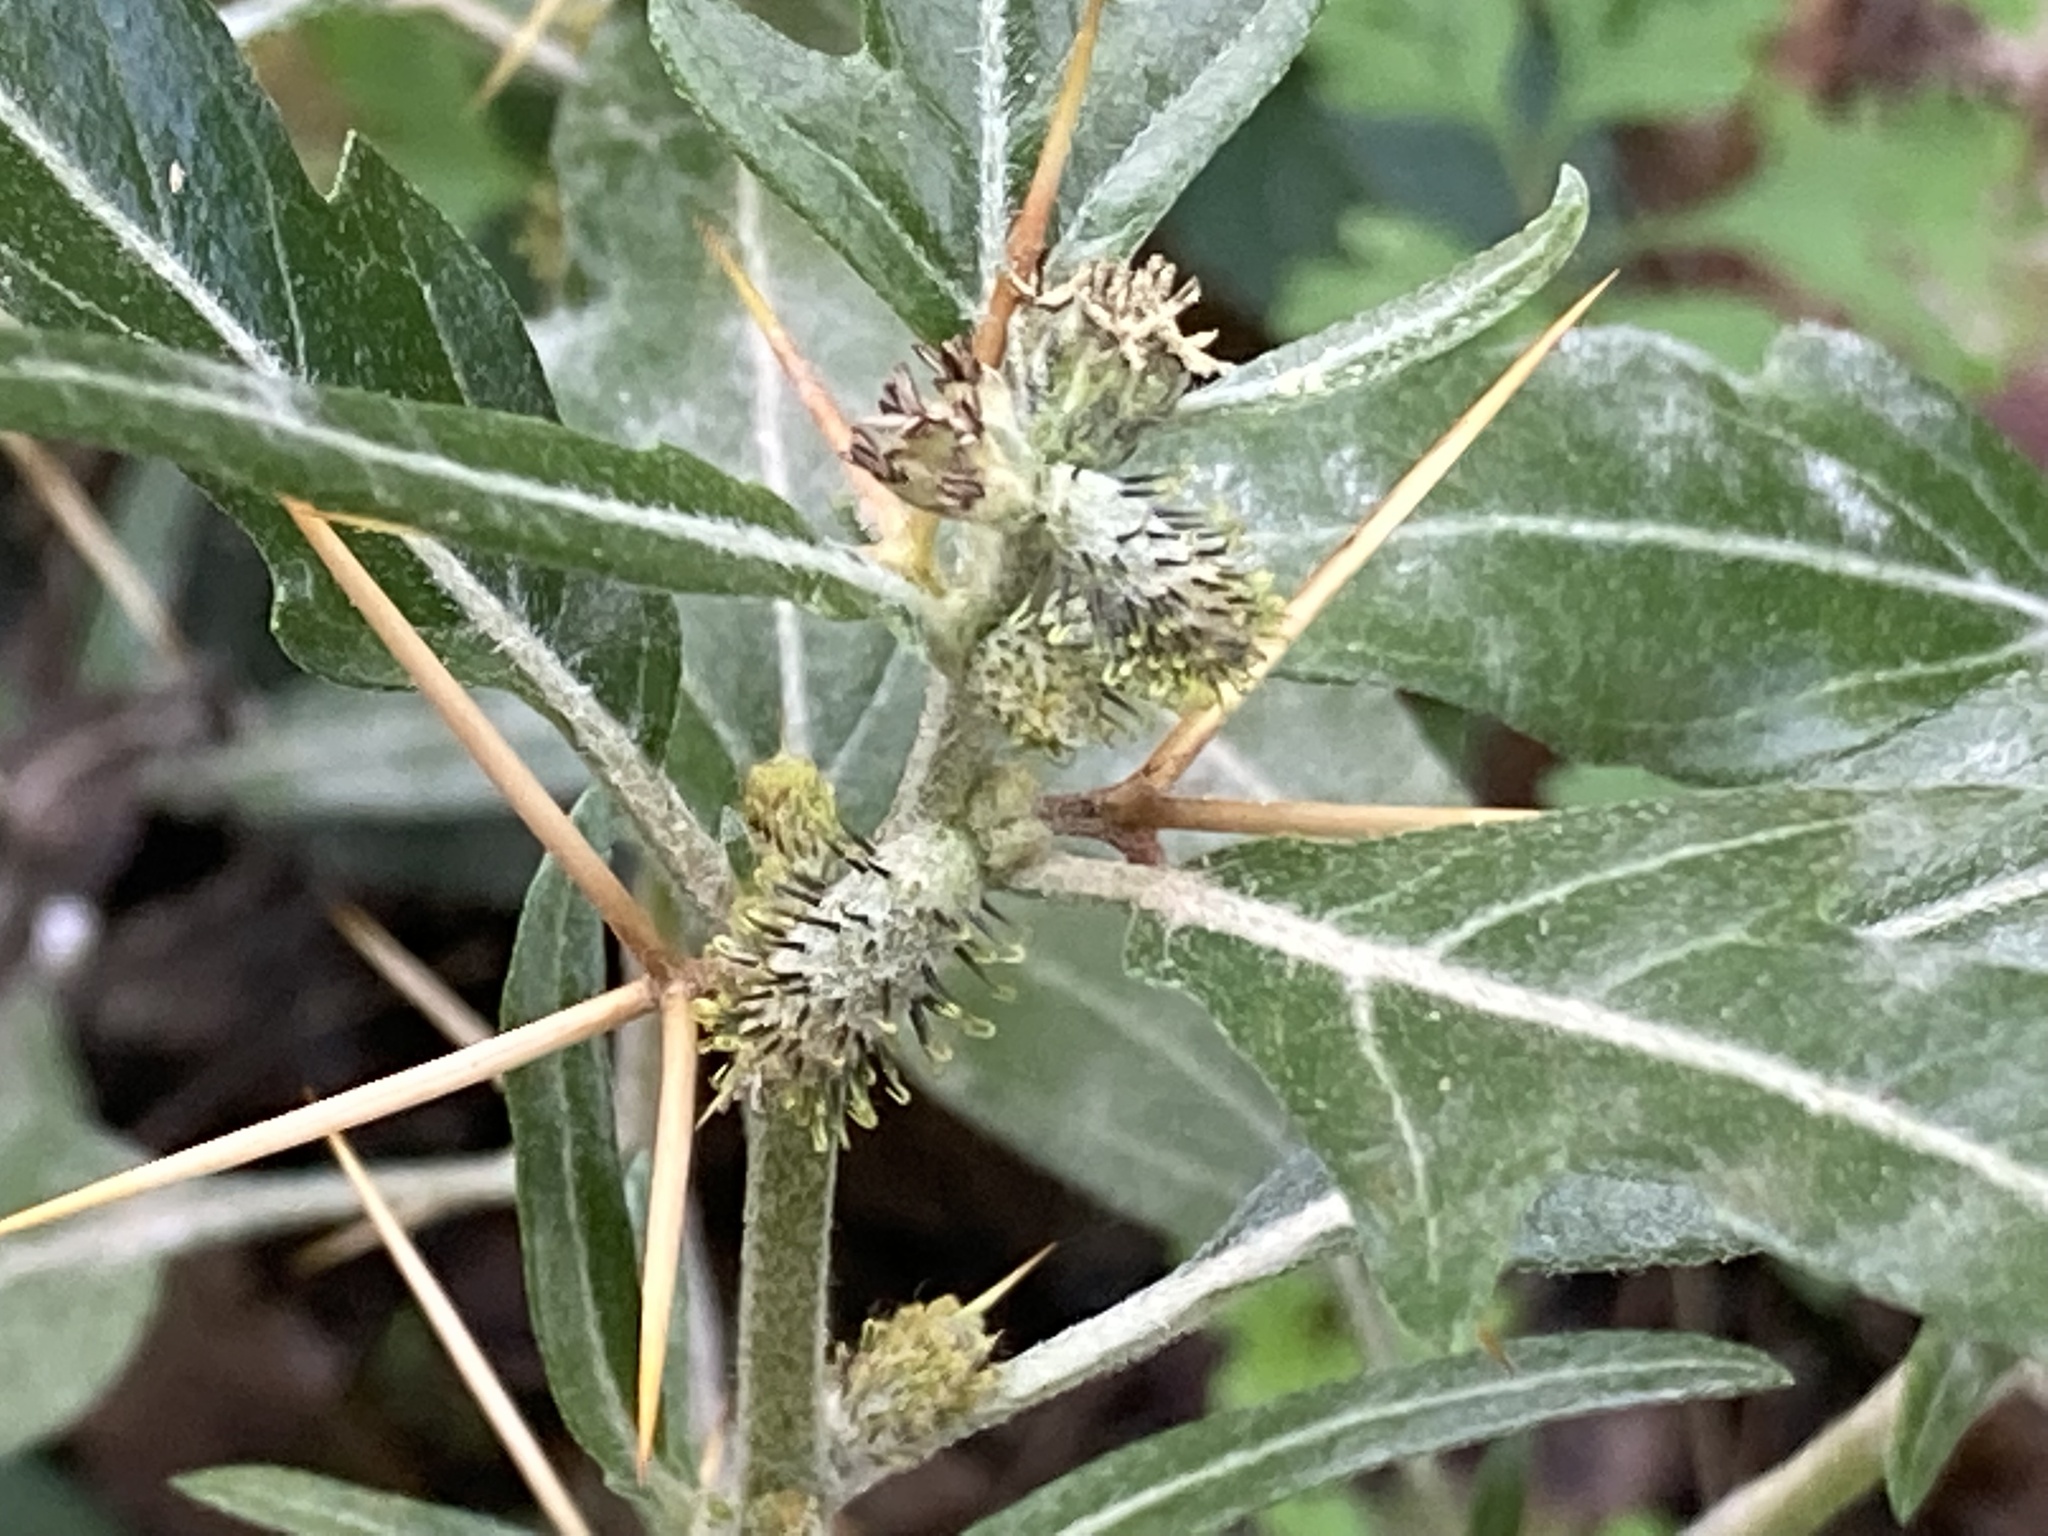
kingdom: Plantae
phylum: Tracheophyta
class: Magnoliopsida
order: Asterales
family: Asteraceae
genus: Xanthium
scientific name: Xanthium spinosum
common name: Spiny cocklebur
